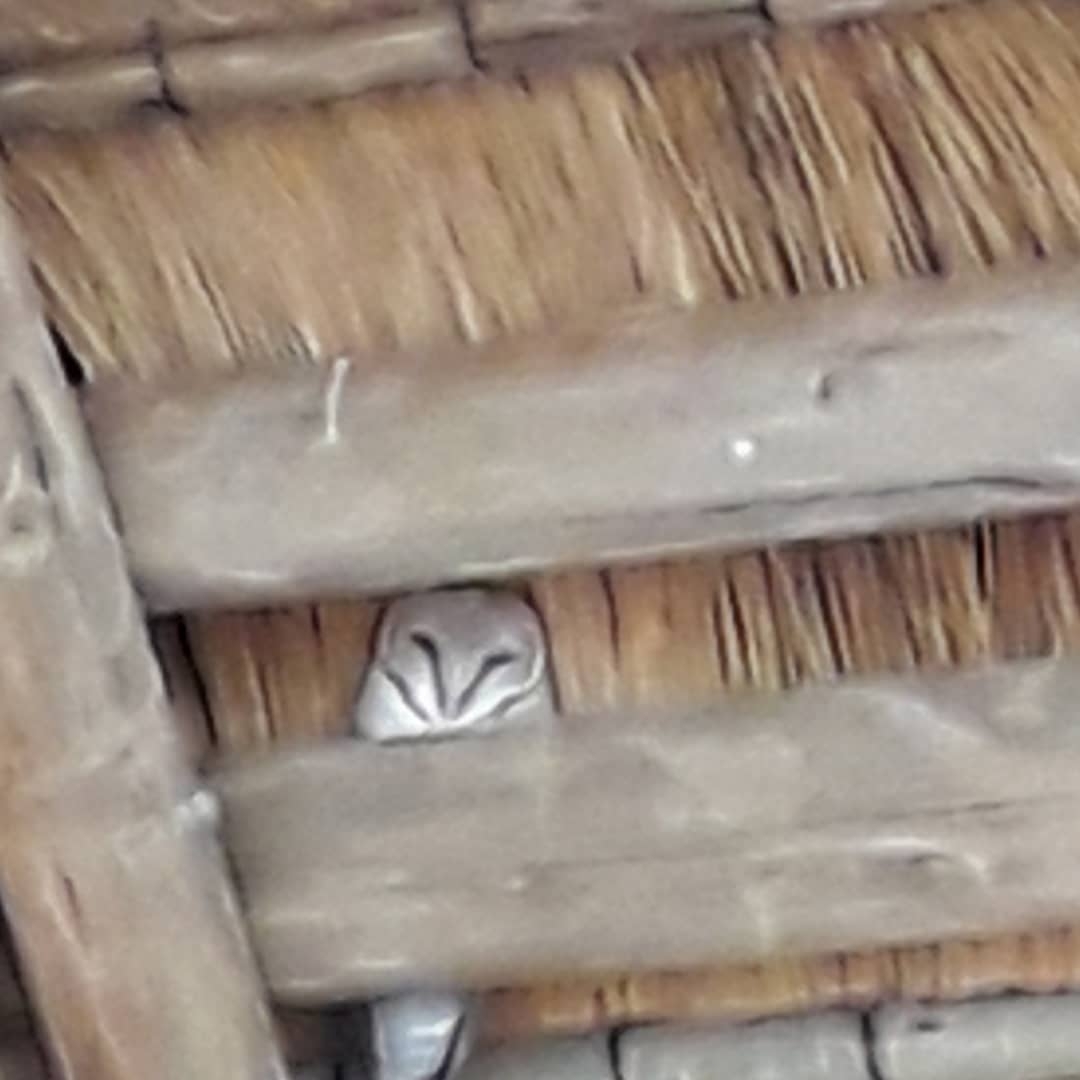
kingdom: Animalia
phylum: Chordata
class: Aves
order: Strigiformes
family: Tytonidae
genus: Tyto
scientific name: Tyto alba
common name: Barn owl
